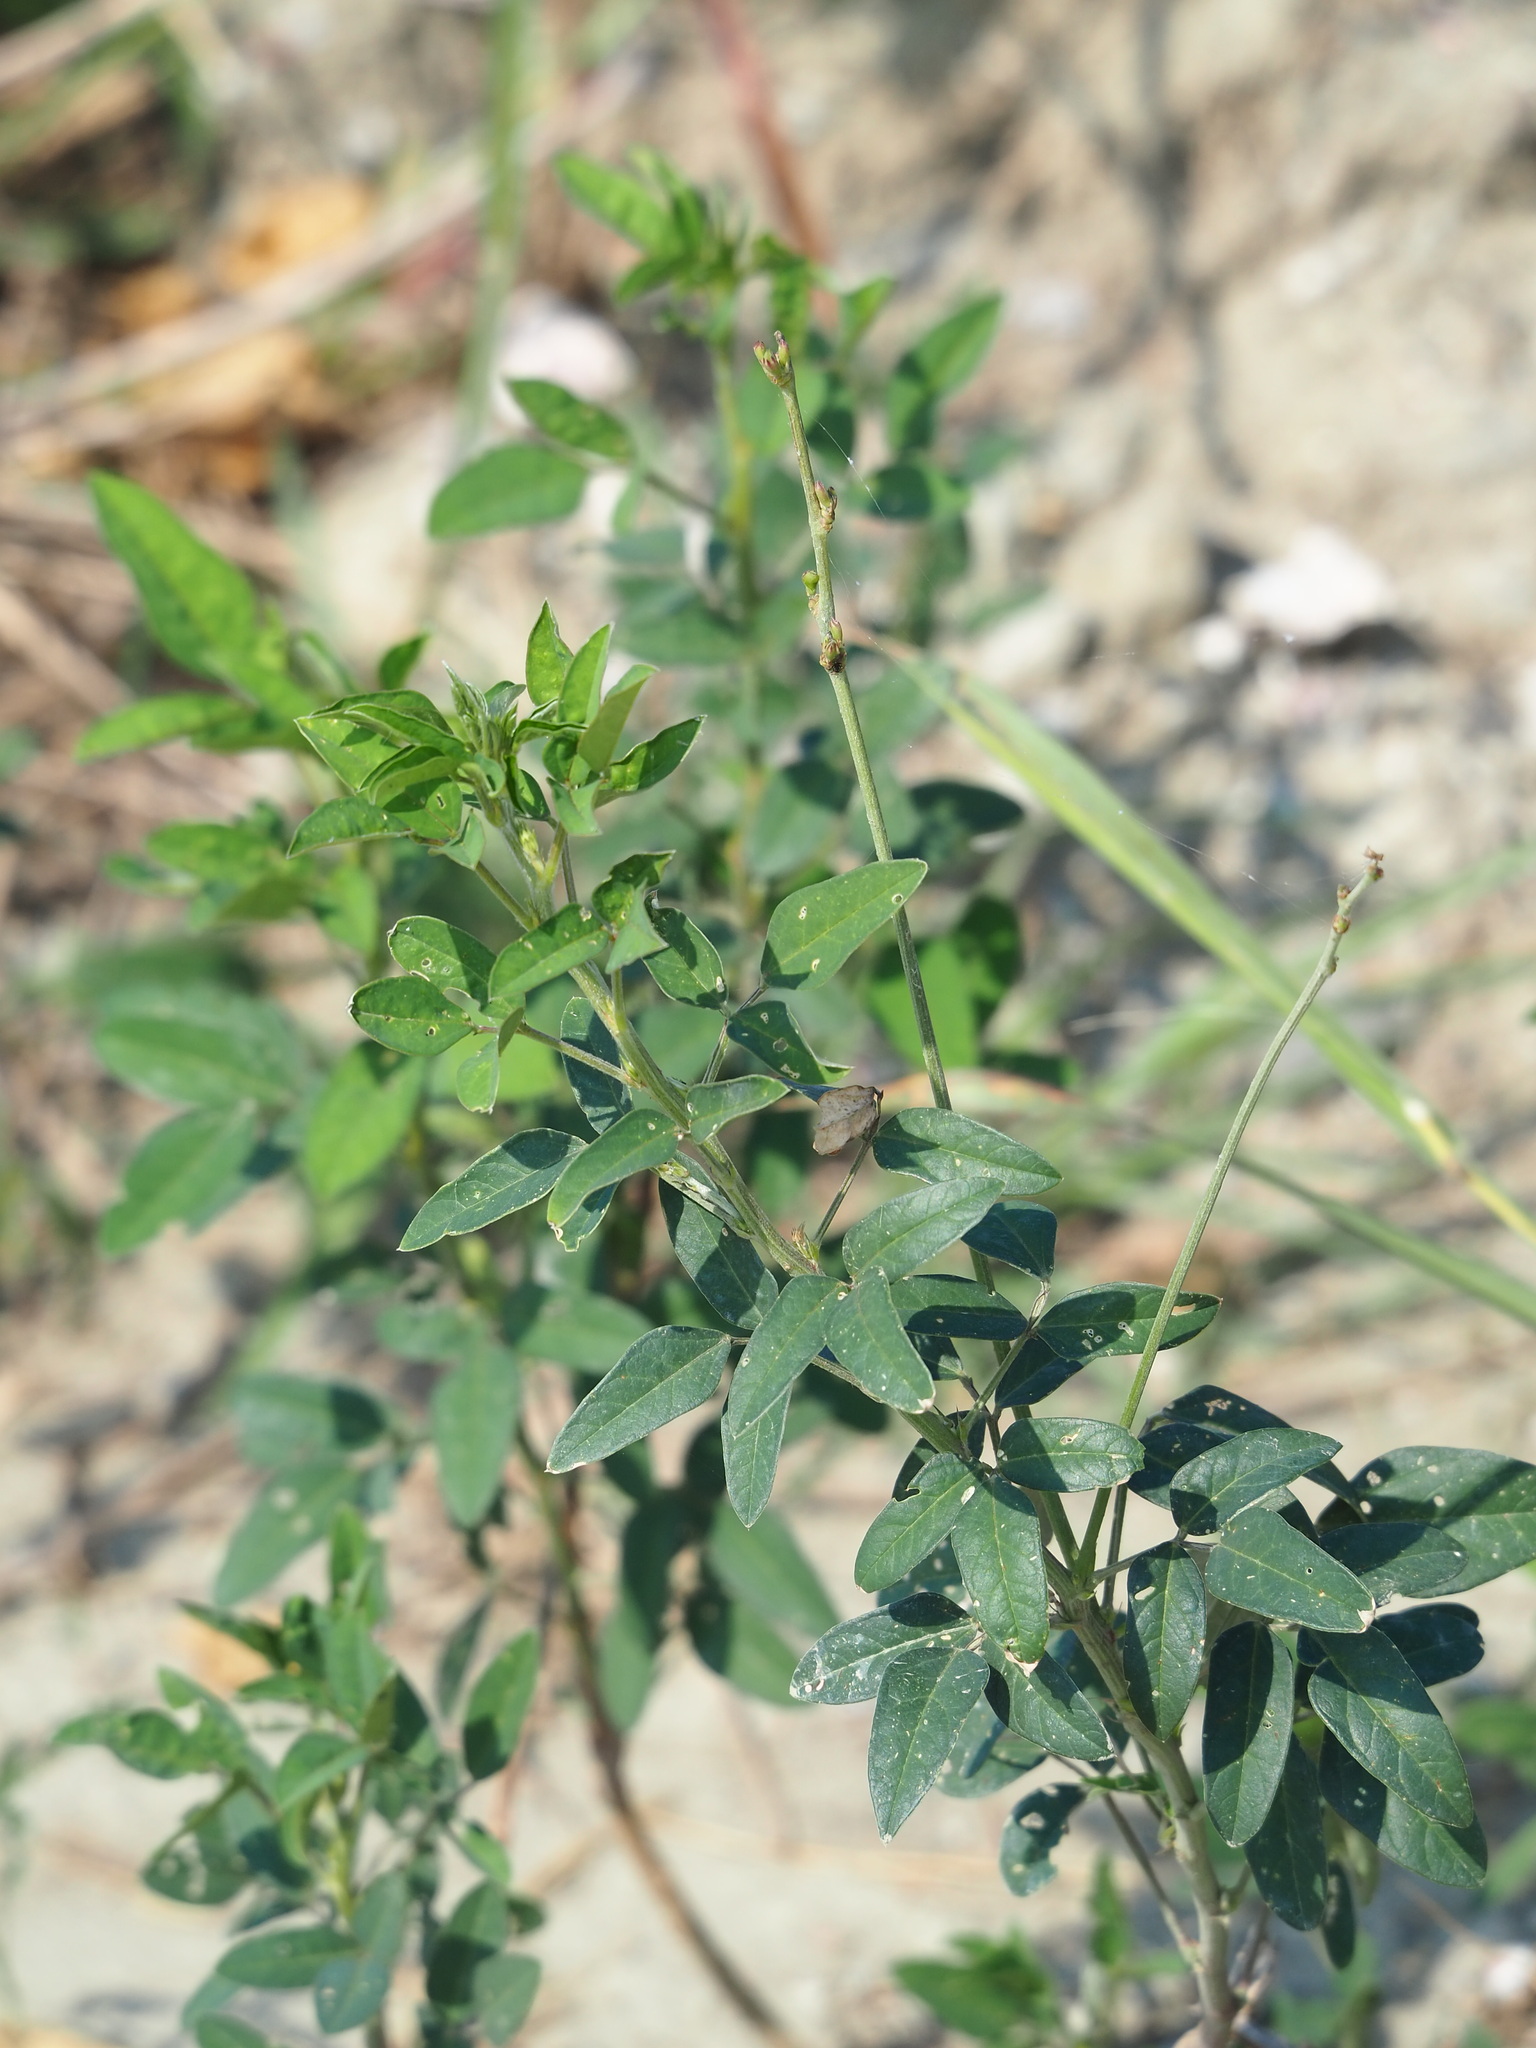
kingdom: Plantae
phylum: Tracheophyta
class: Magnoliopsida
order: Fabales
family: Fabaceae
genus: Macroptilium
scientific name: Macroptilium lathyroides
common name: Wild bushbean
